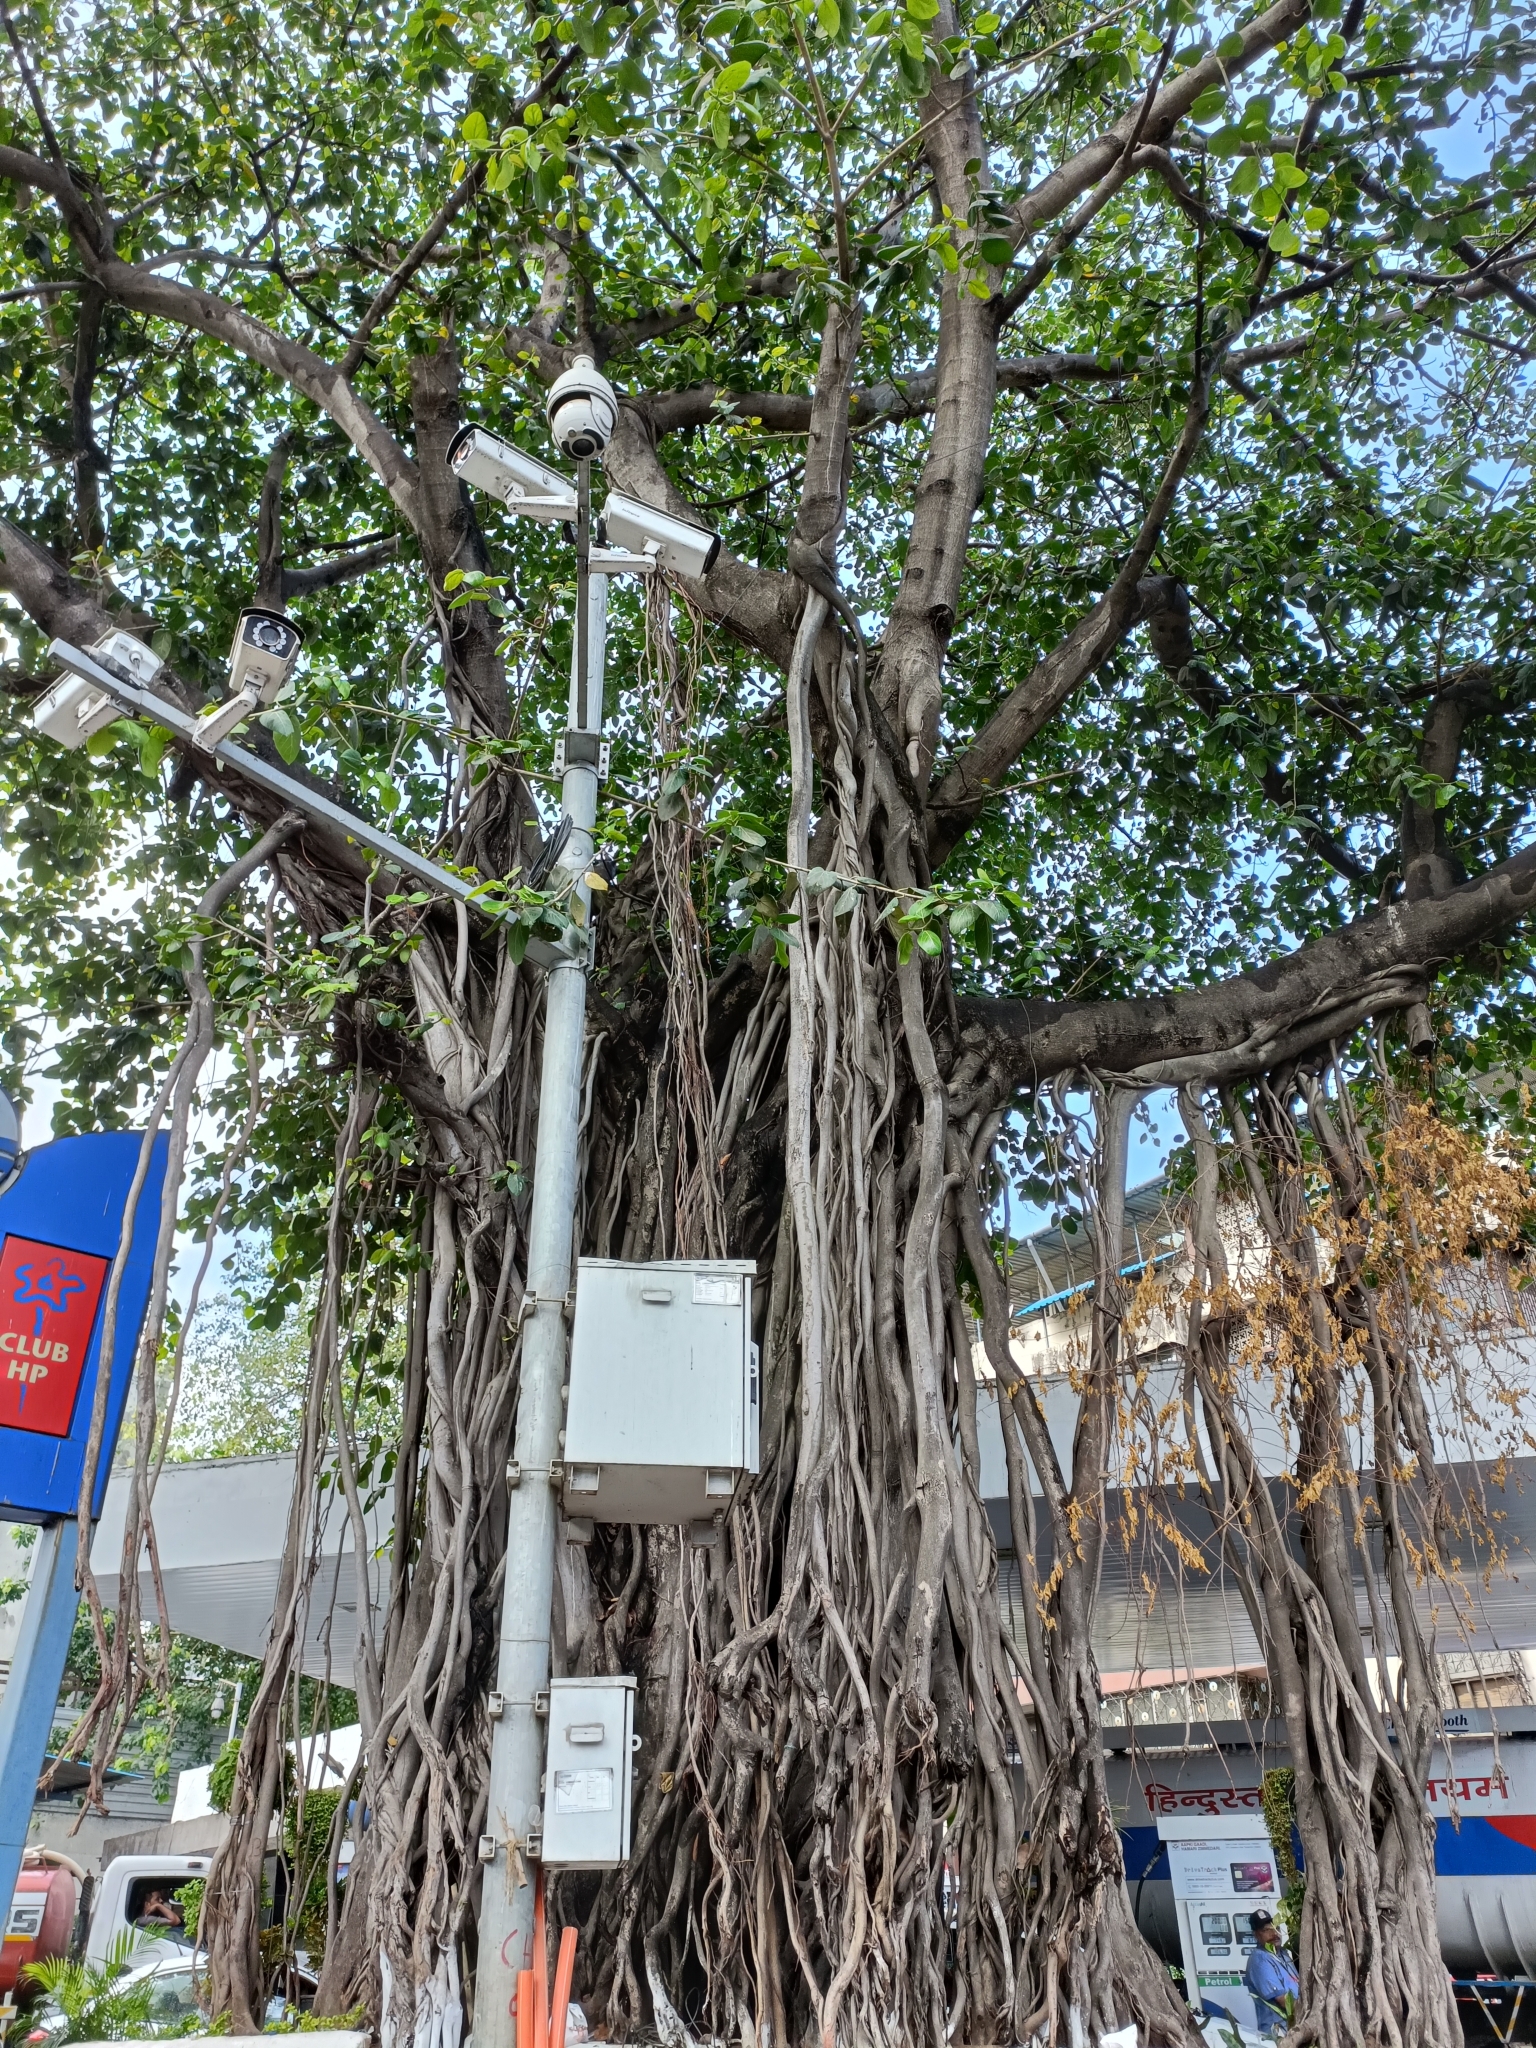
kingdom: Plantae
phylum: Tracheophyta
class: Magnoliopsida
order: Rosales
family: Moraceae
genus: Ficus
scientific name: Ficus benghalensis
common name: Indian banyan
